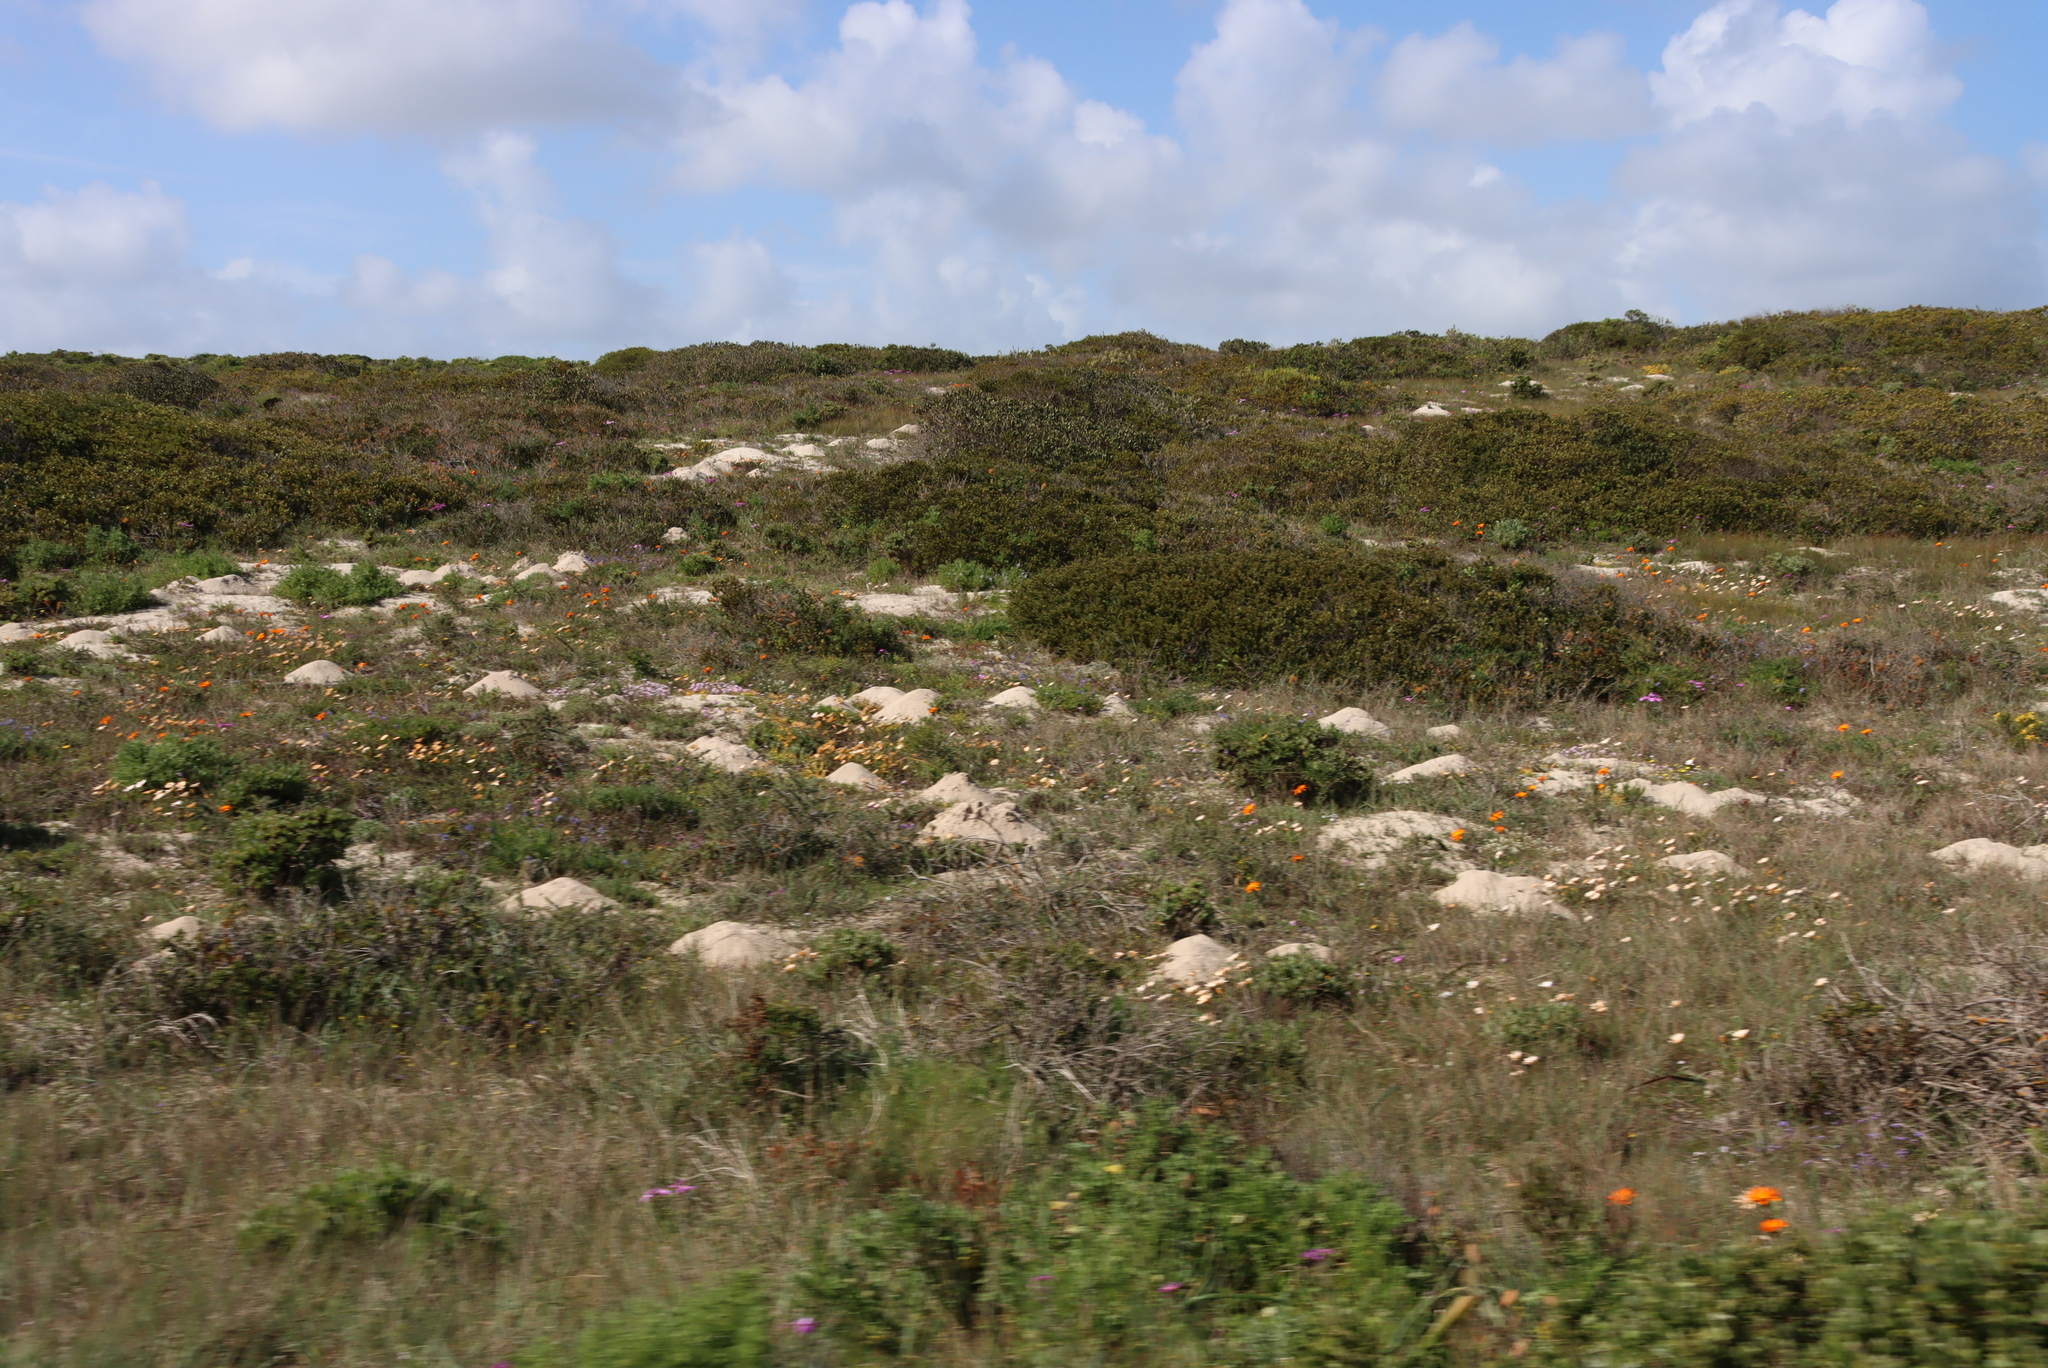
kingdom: Animalia
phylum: Chordata
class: Mammalia
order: Rodentia
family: Bathyergidae
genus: Bathyergus
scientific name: Bathyergus suillus
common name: Cape dune mole rat
